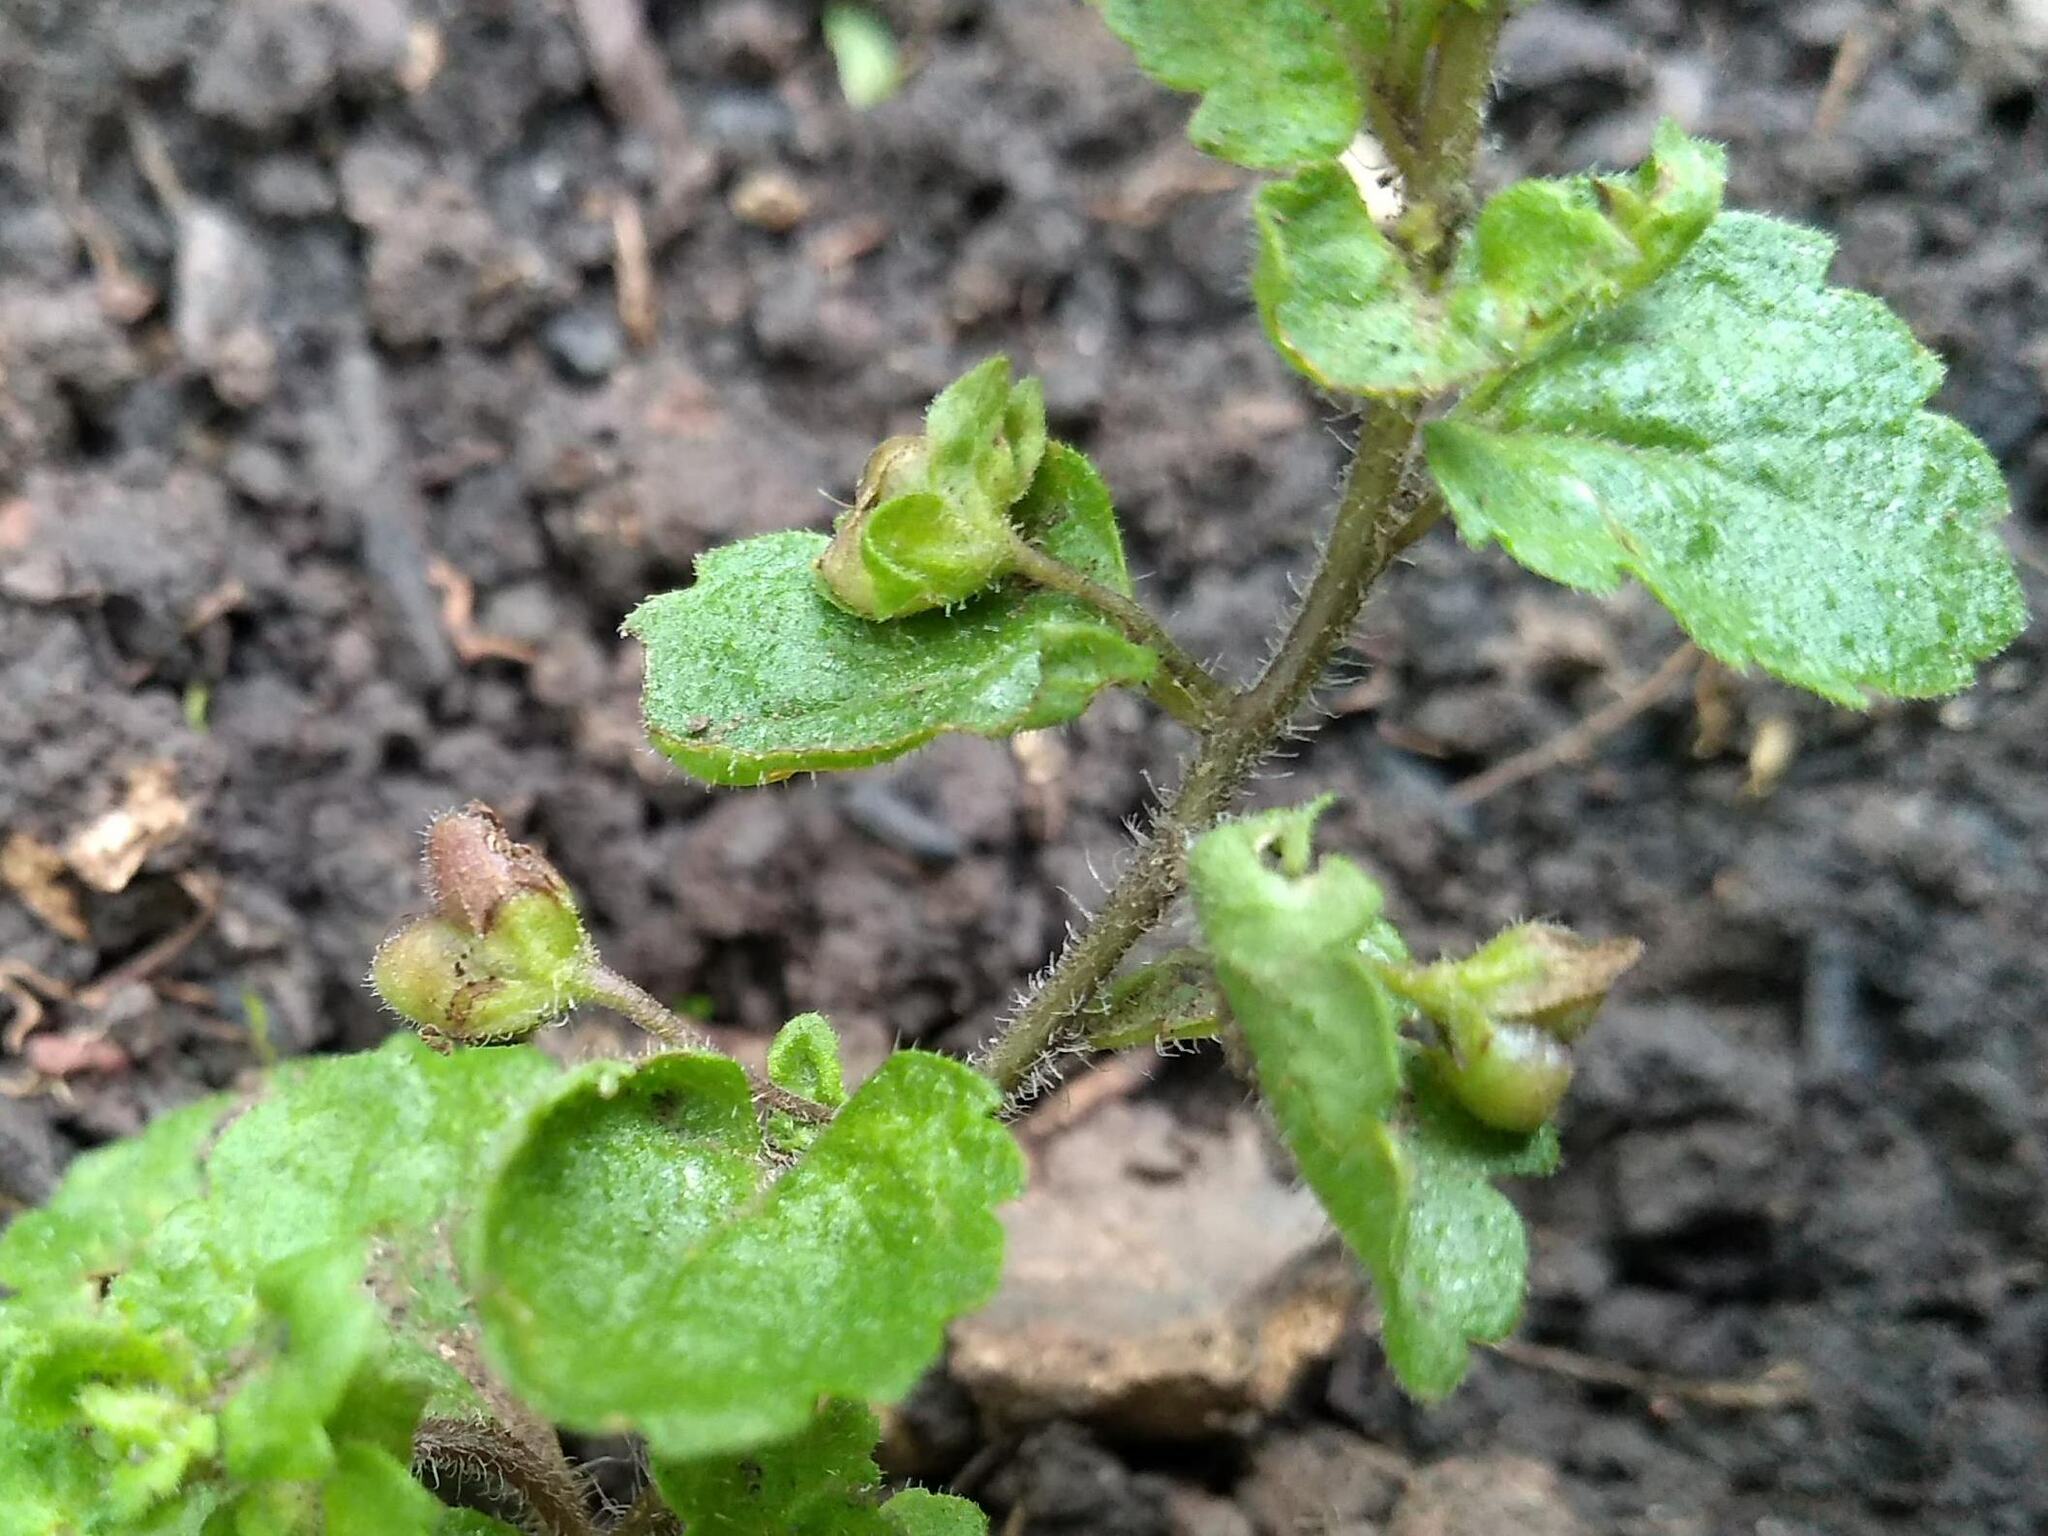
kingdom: Plantae
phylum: Tracheophyta
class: Magnoliopsida
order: Lamiales
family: Plantaginaceae
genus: Veronica
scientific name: Veronica persica
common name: Common field-speedwell
